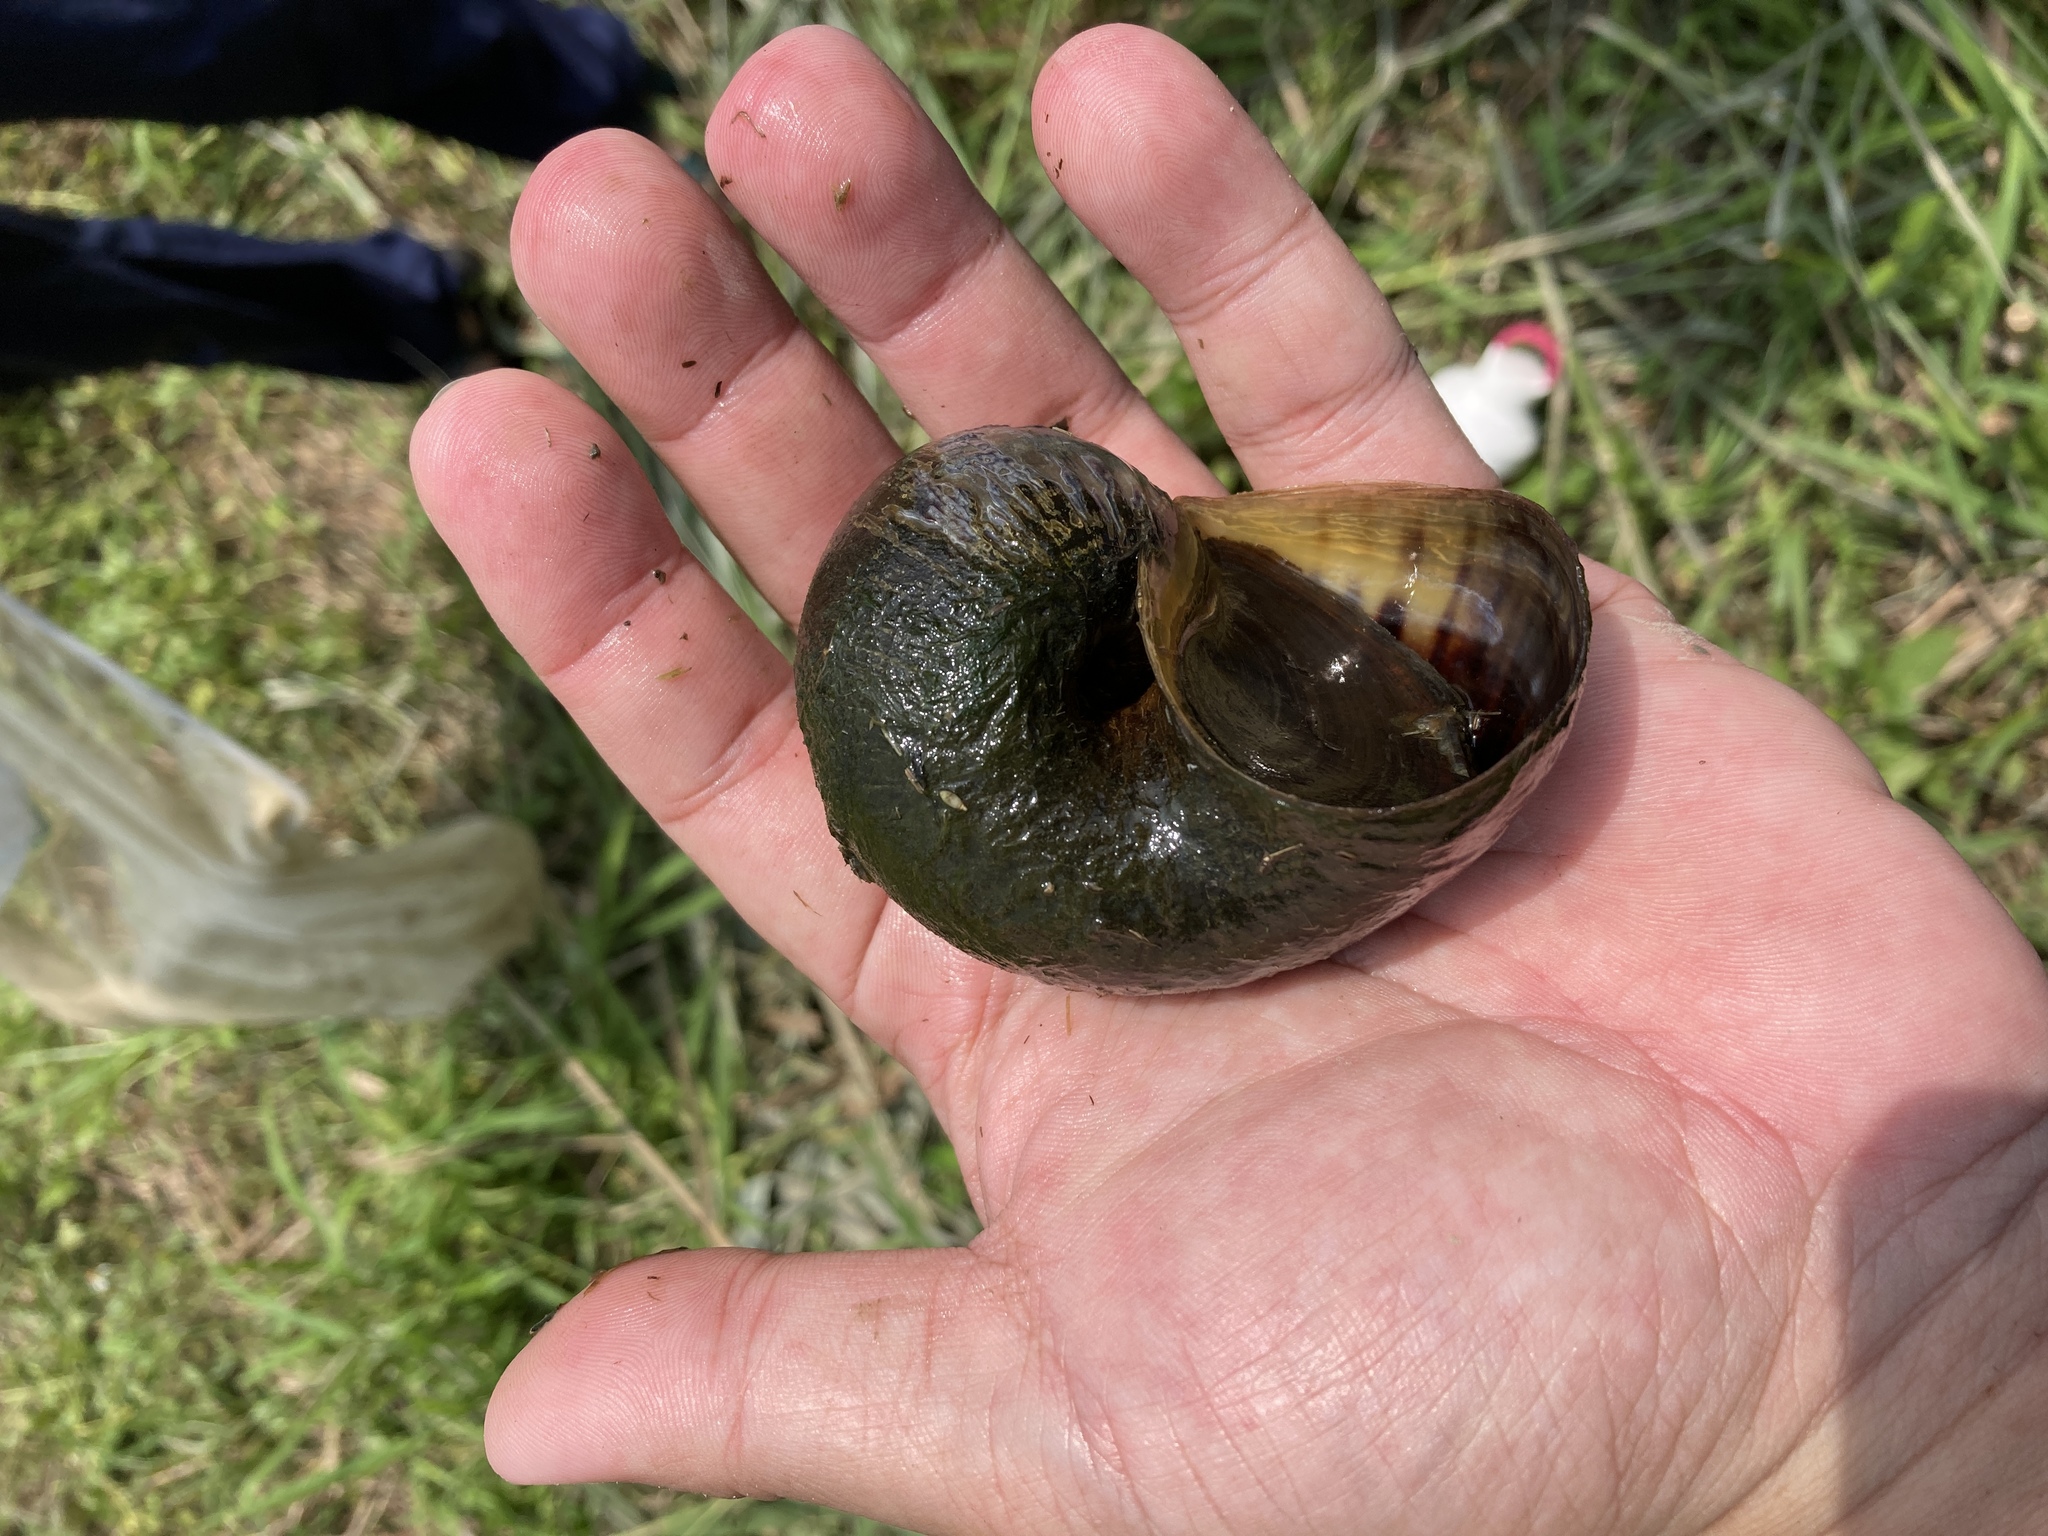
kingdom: Animalia
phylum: Mollusca
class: Gastropoda
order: Architaenioglossa
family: Ampullariidae
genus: Pomacea
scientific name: Pomacea canaliculata
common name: Channeled applesnail
